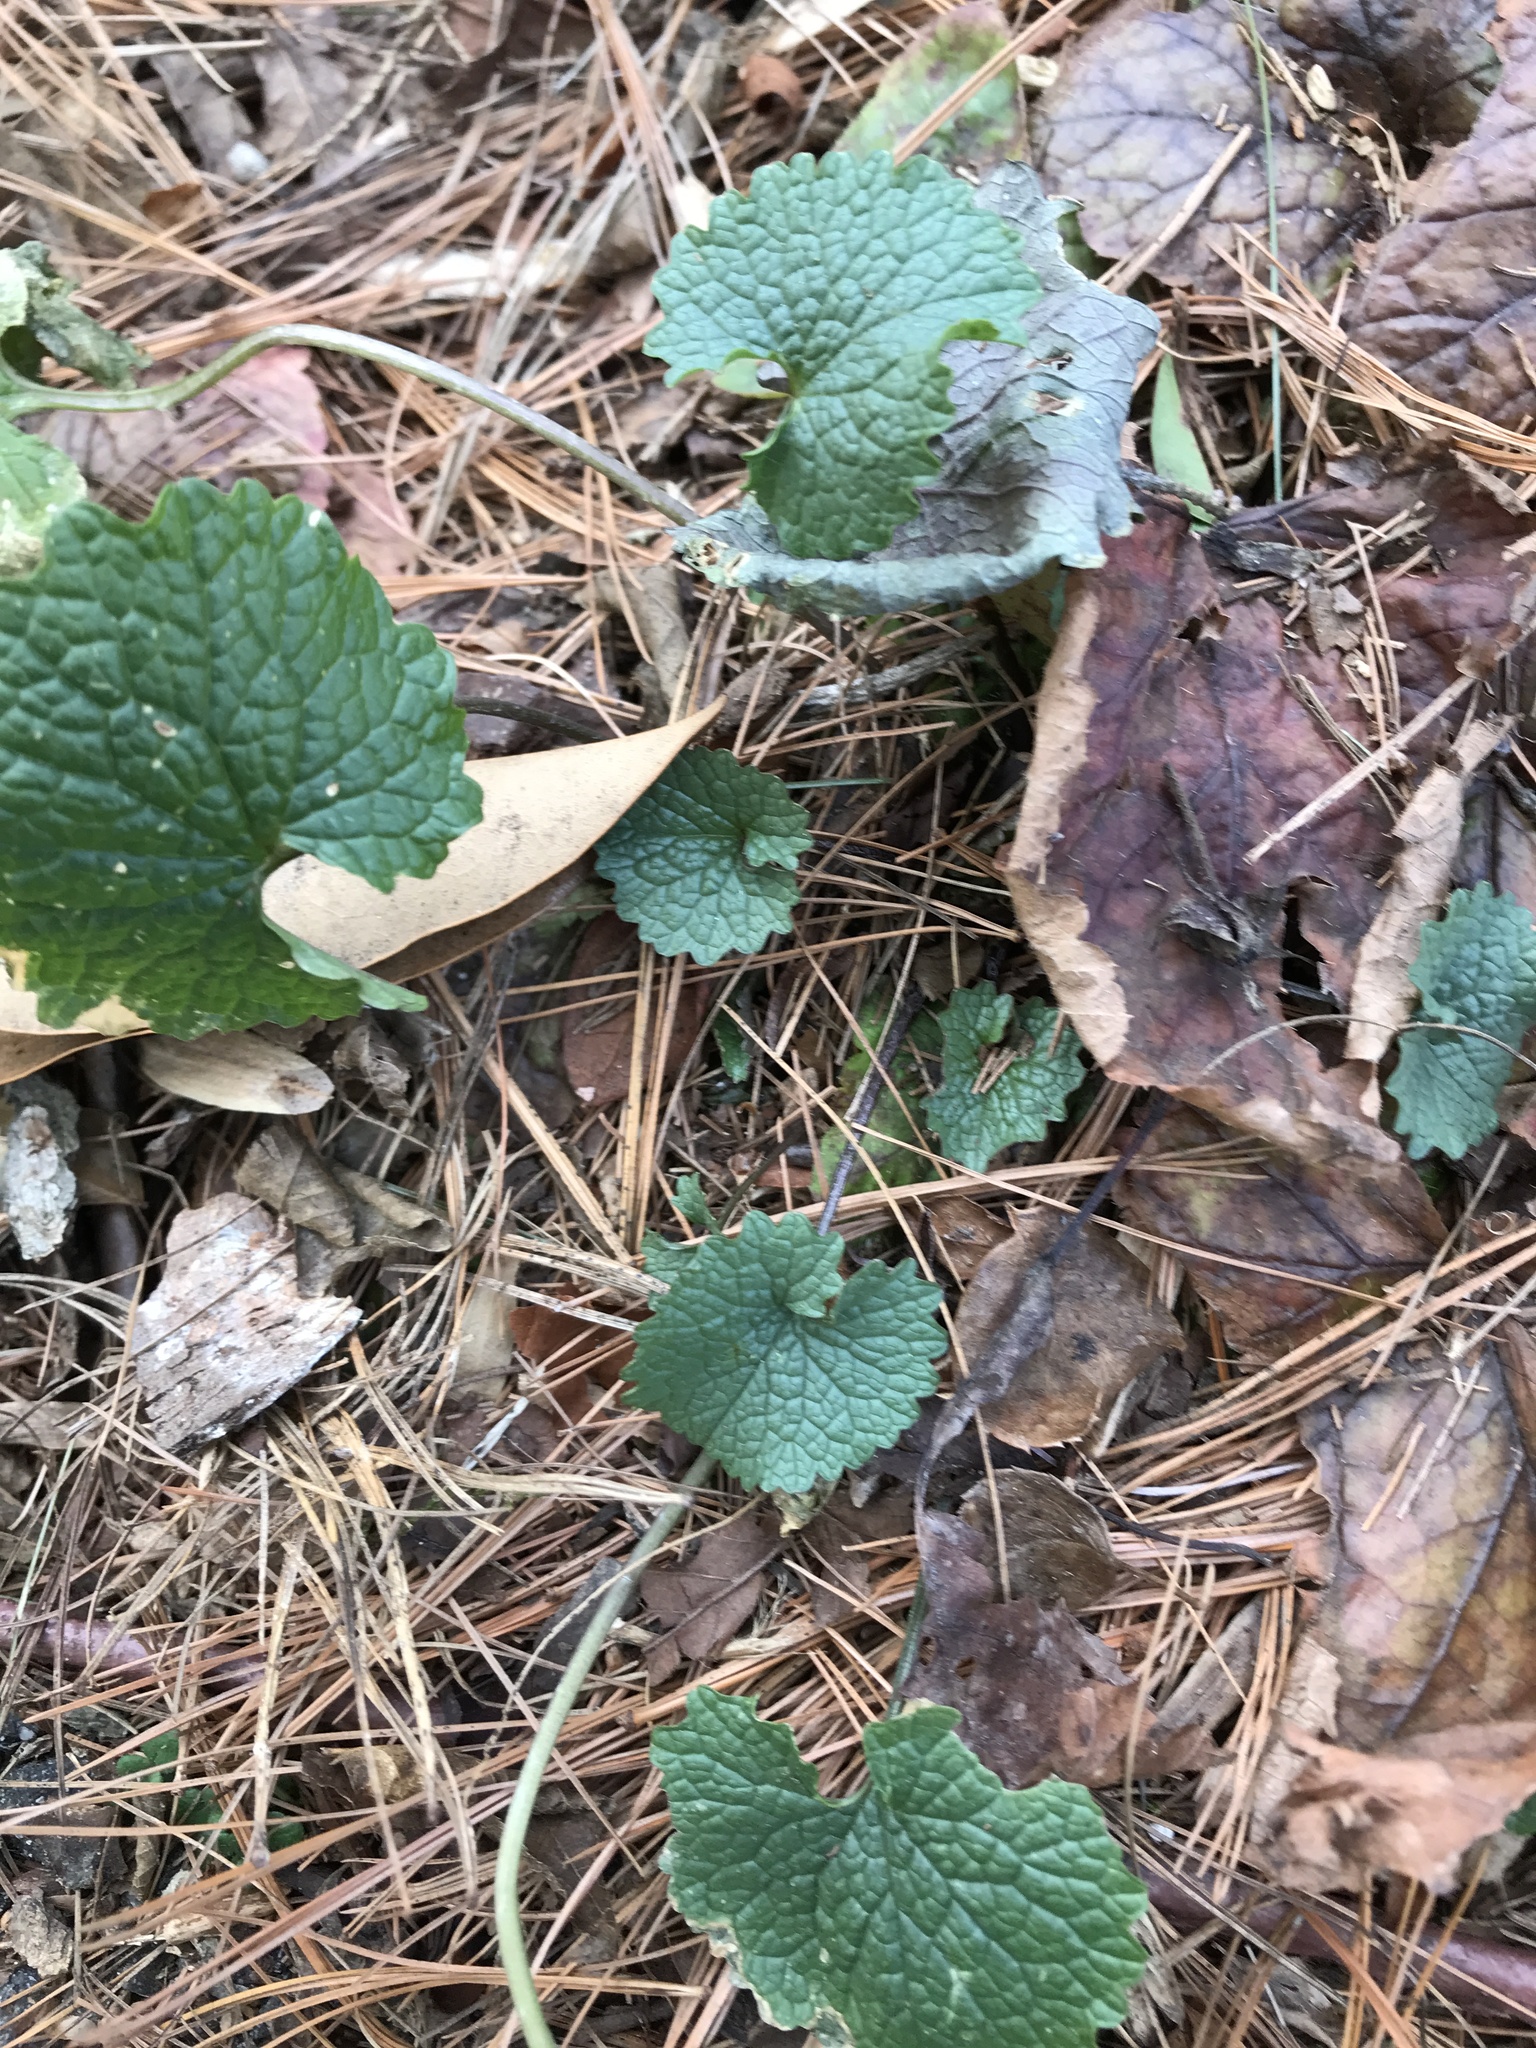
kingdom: Plantae
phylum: Tracheophyta
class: Magnoliopsida
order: Brassicales
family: Brassicaceae
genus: Alliaria
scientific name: Alliaria petiolata
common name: Garlic mustard
